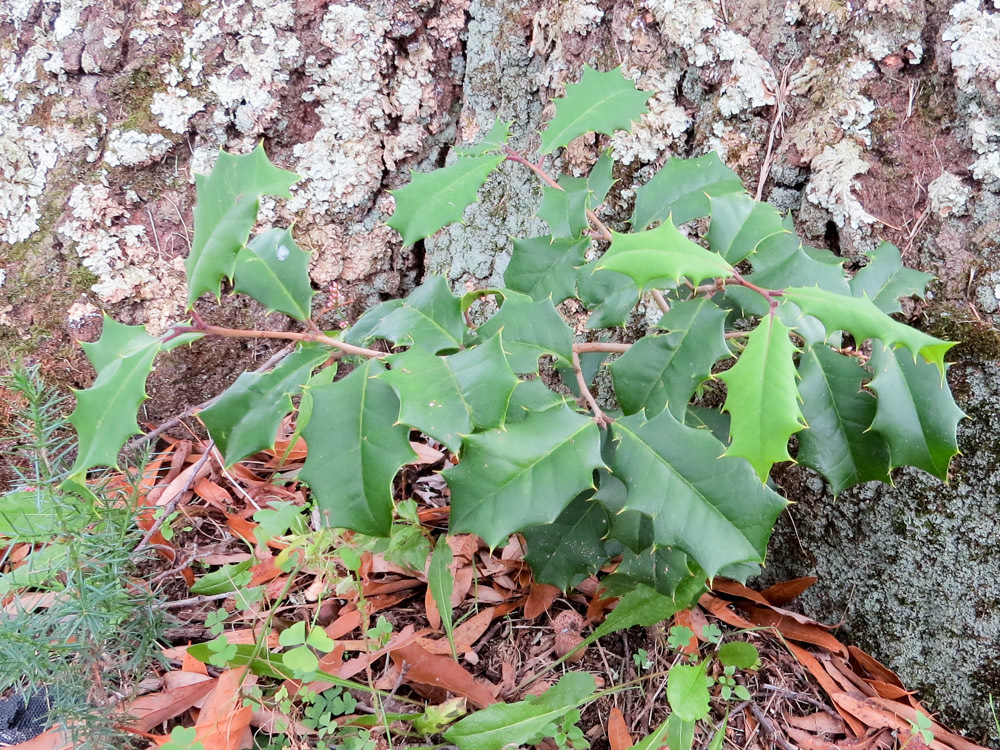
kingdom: Plantae
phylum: Tracheophyta
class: Magnoliopsida
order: Aquifoliales
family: Aquifoliaceae
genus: Ilex
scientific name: Ilex opaca
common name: American holly
